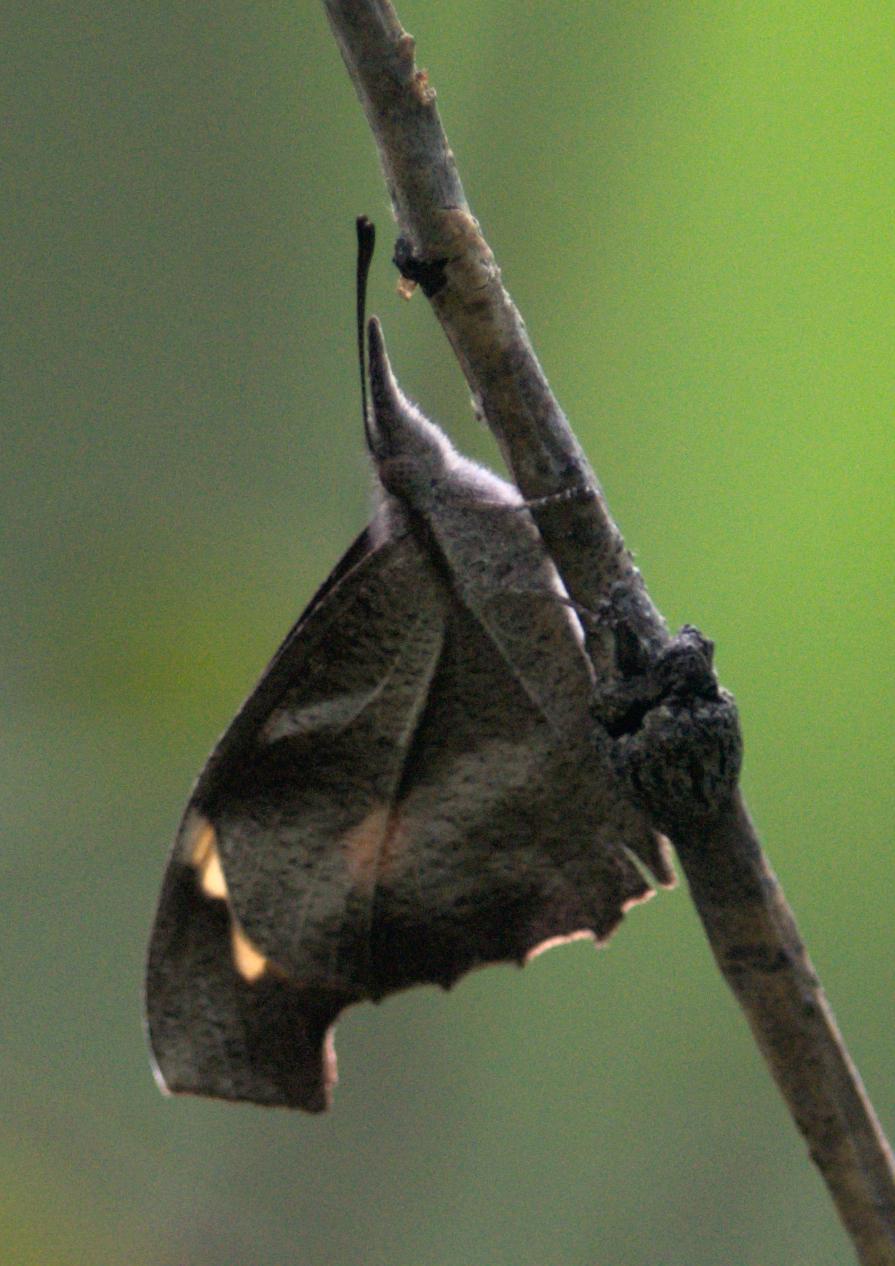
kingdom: Animalia
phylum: Arthropoda
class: Insecta
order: Lepidoptera
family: Nymphalidae
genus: Libythea
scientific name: Libythea myrrha
